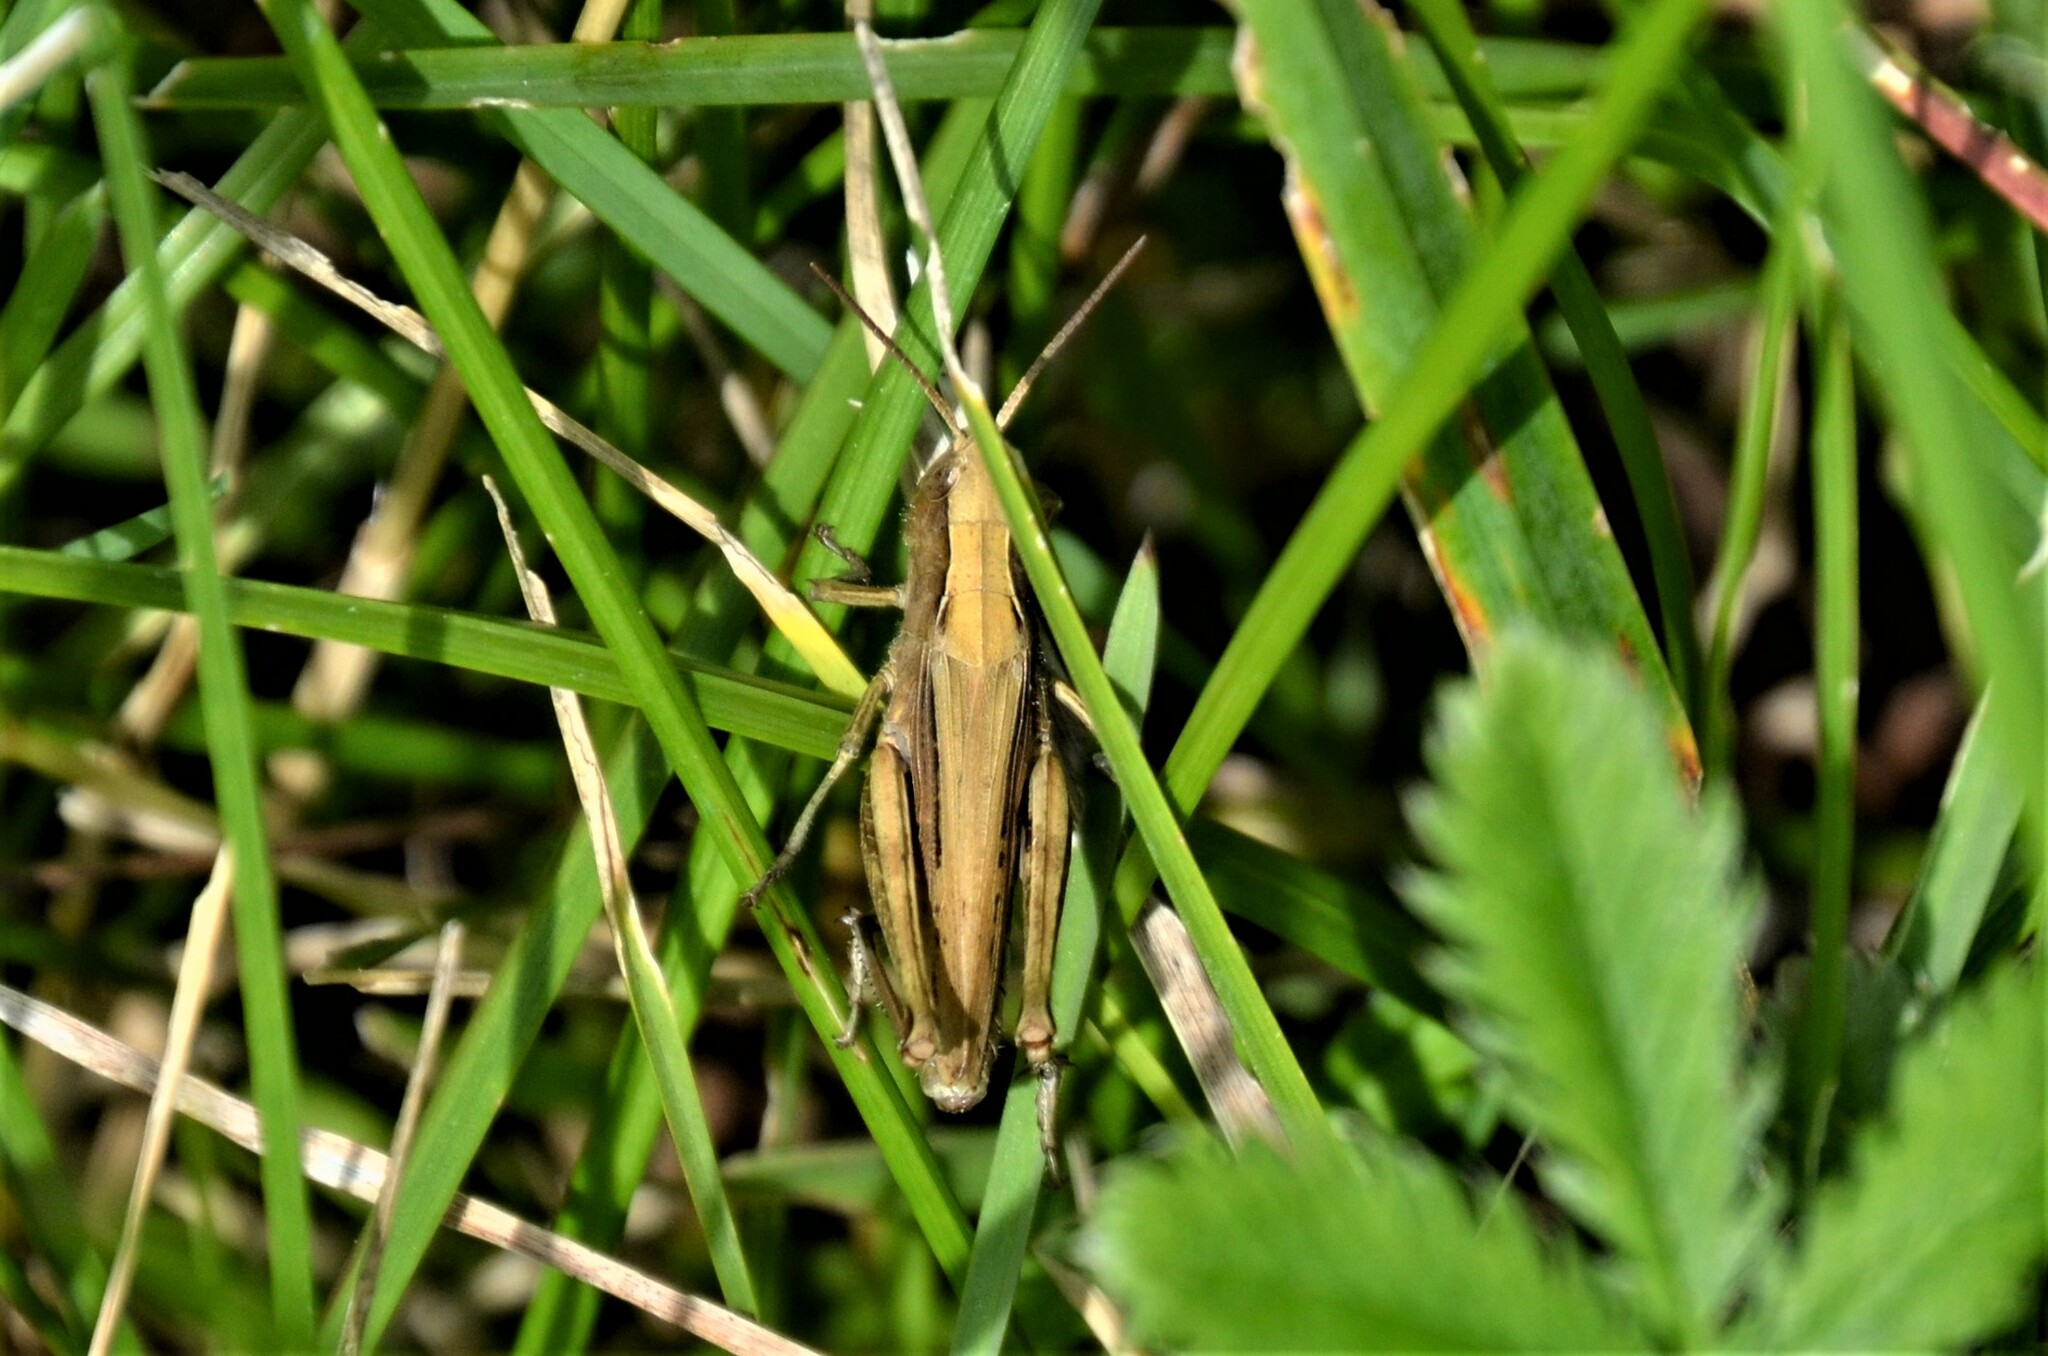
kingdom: Animalia
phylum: Arthropoda
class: Insecta
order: Orthoptera
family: Acrididae
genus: Chorthippus
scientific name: Chorthippus dorsatus
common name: Steppe grasshopper
